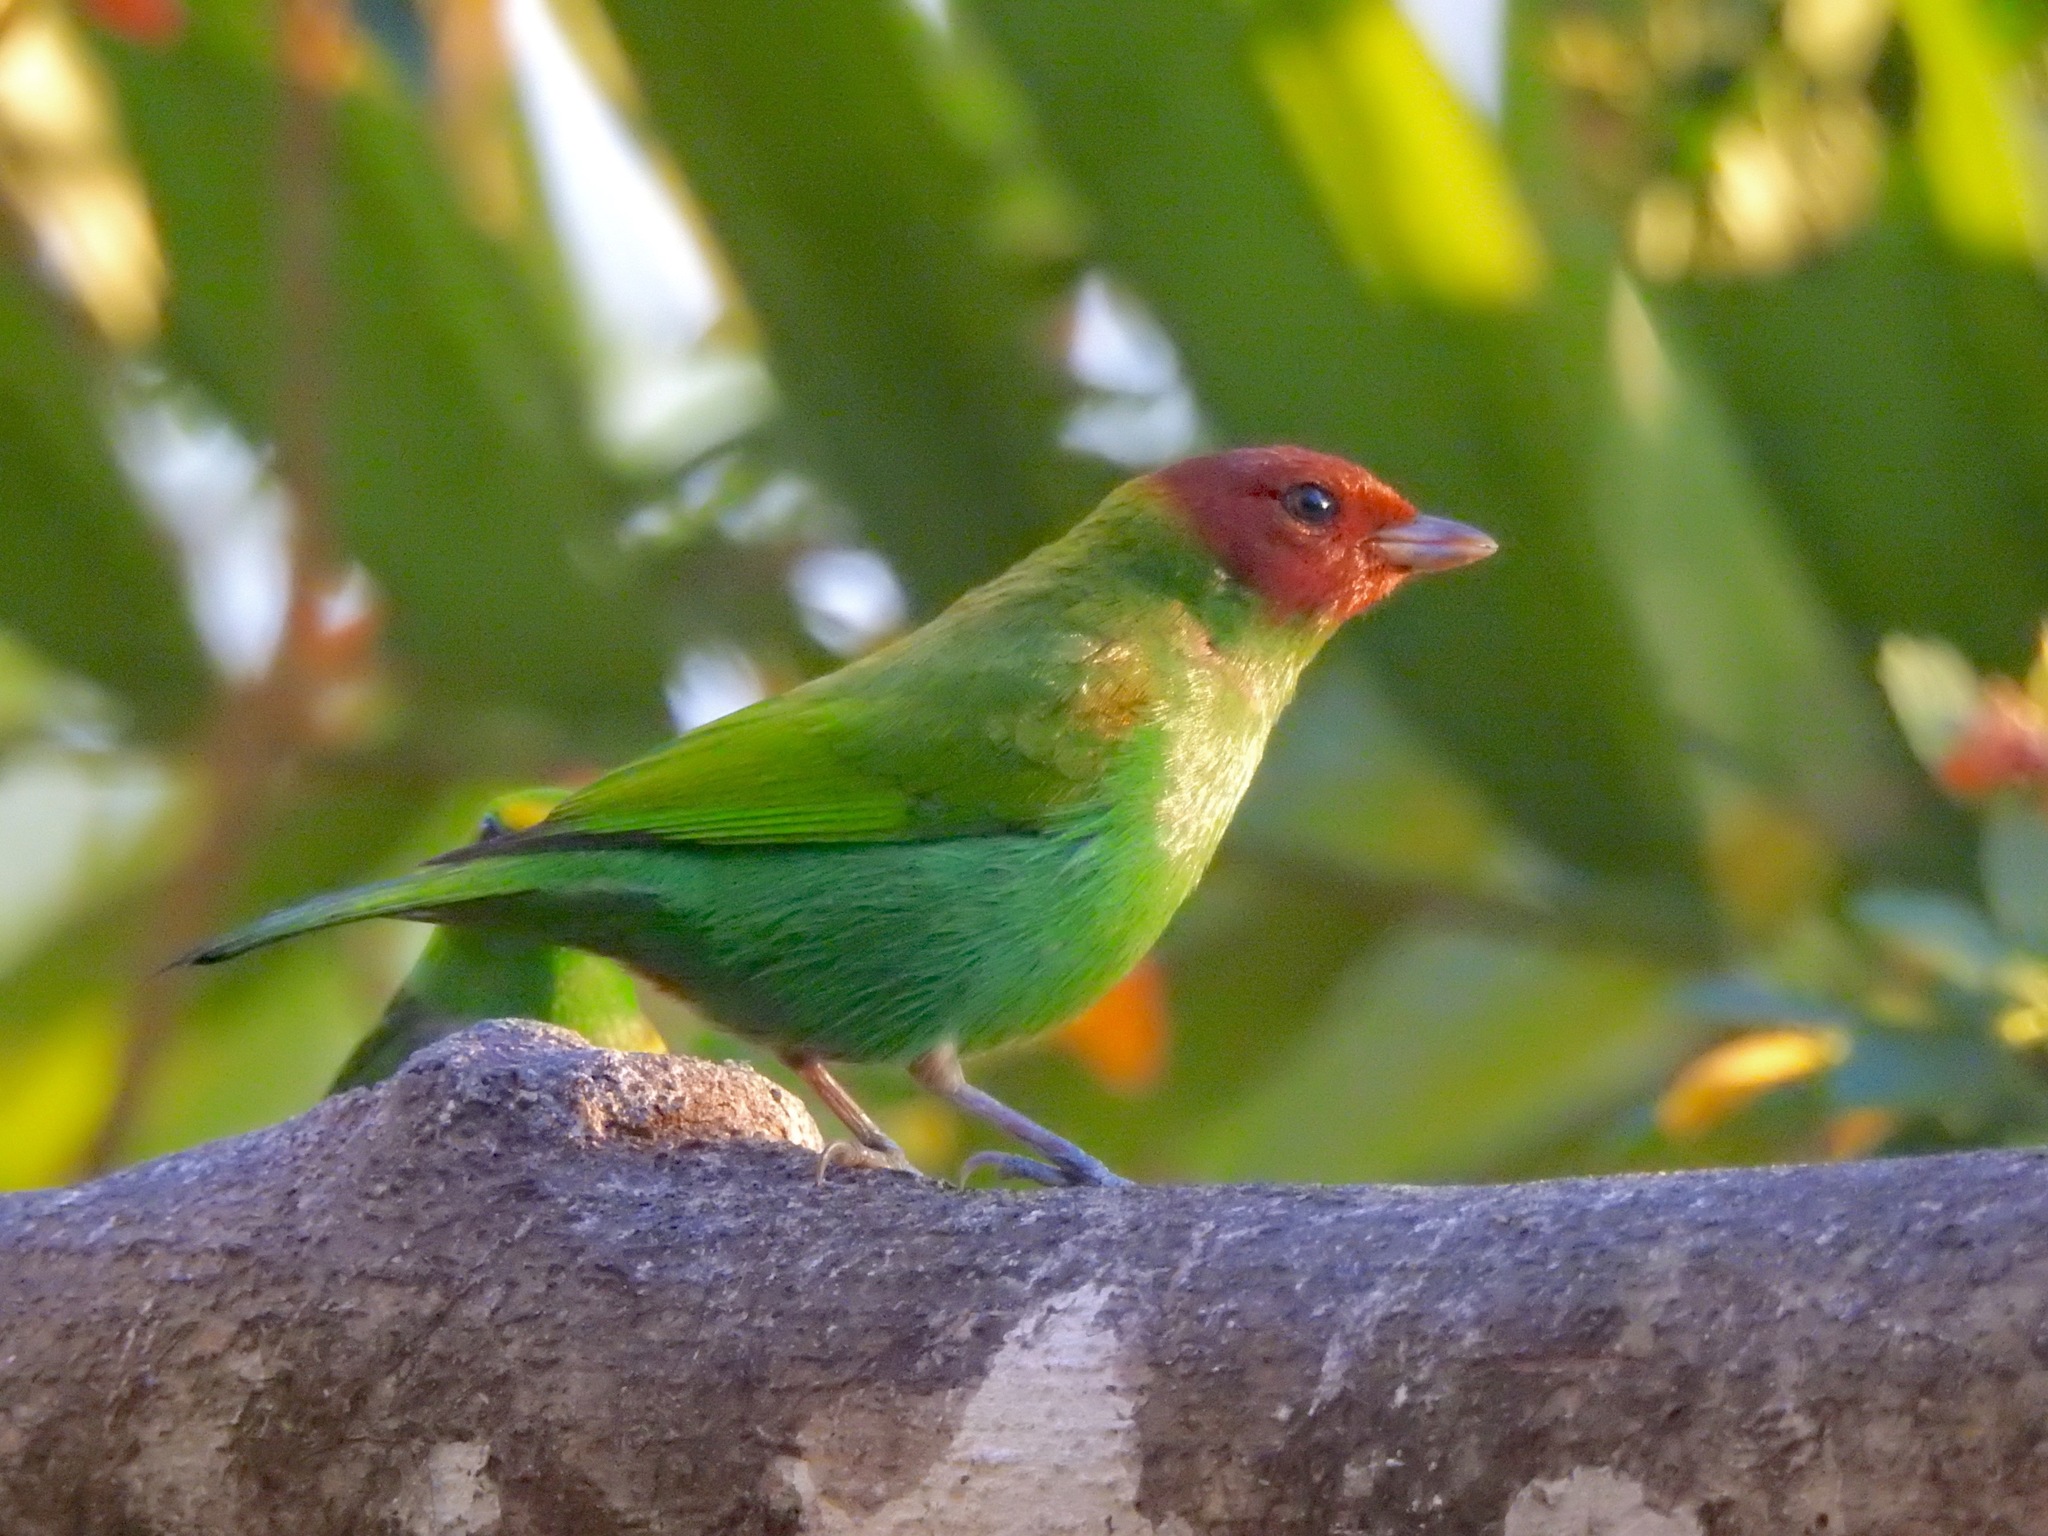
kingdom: Animalia
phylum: Chordata
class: Aves
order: Passeriformes
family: Thraupidae
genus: Tangara
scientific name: Tangara gyrola
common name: Bay-headed tanager
